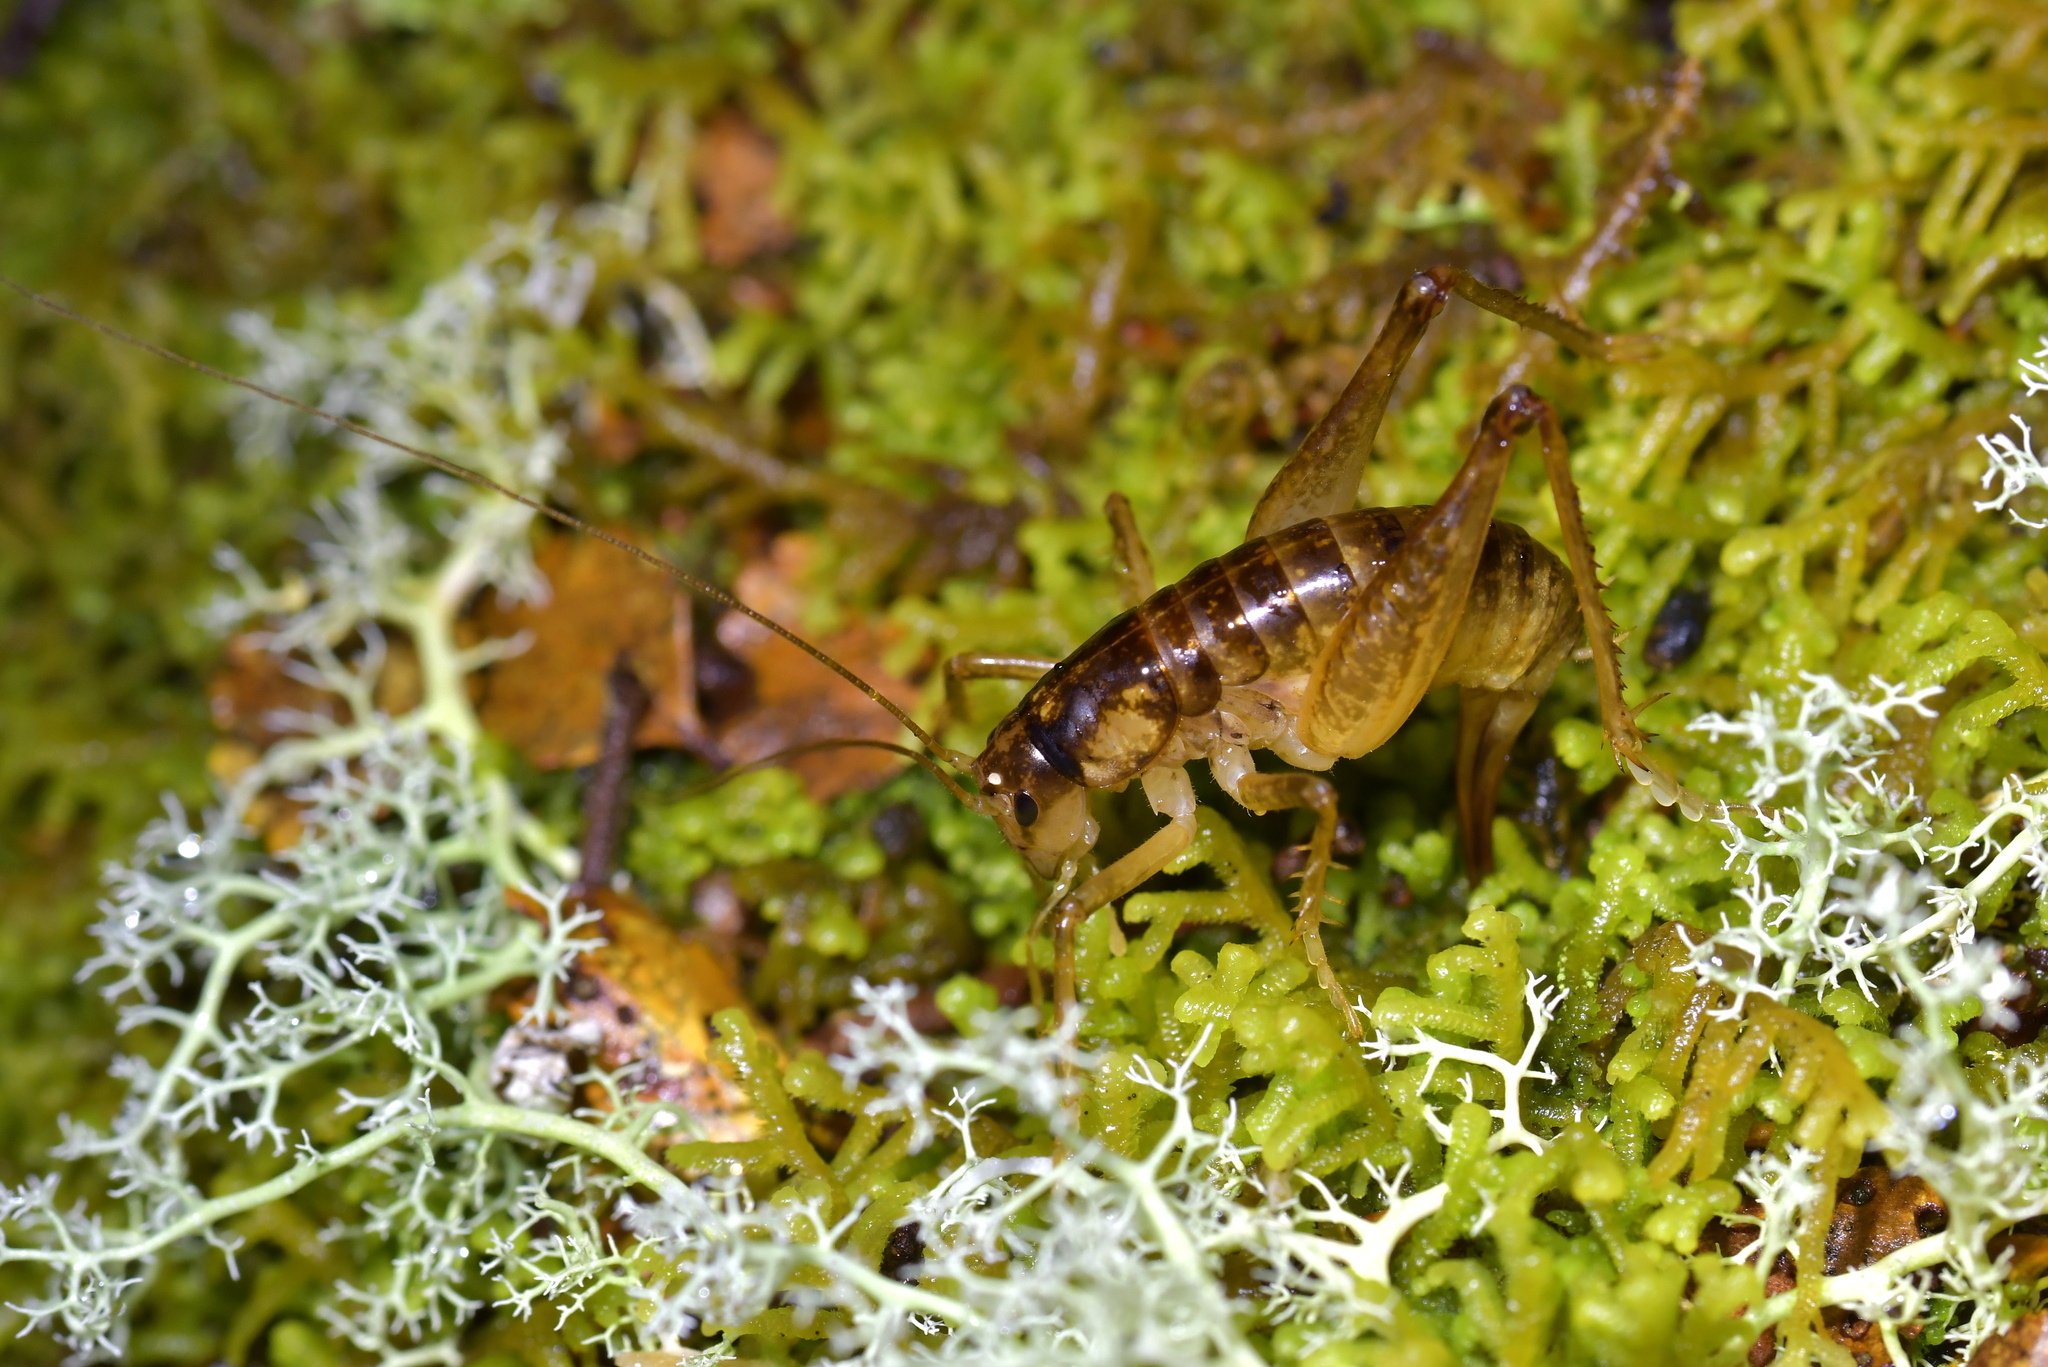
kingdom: Animalia
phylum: Arthropoda
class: Insecta
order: Orthoptera
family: Anostostomatidae
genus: Hemiandrus
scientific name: Hemiandrus maculifrons
